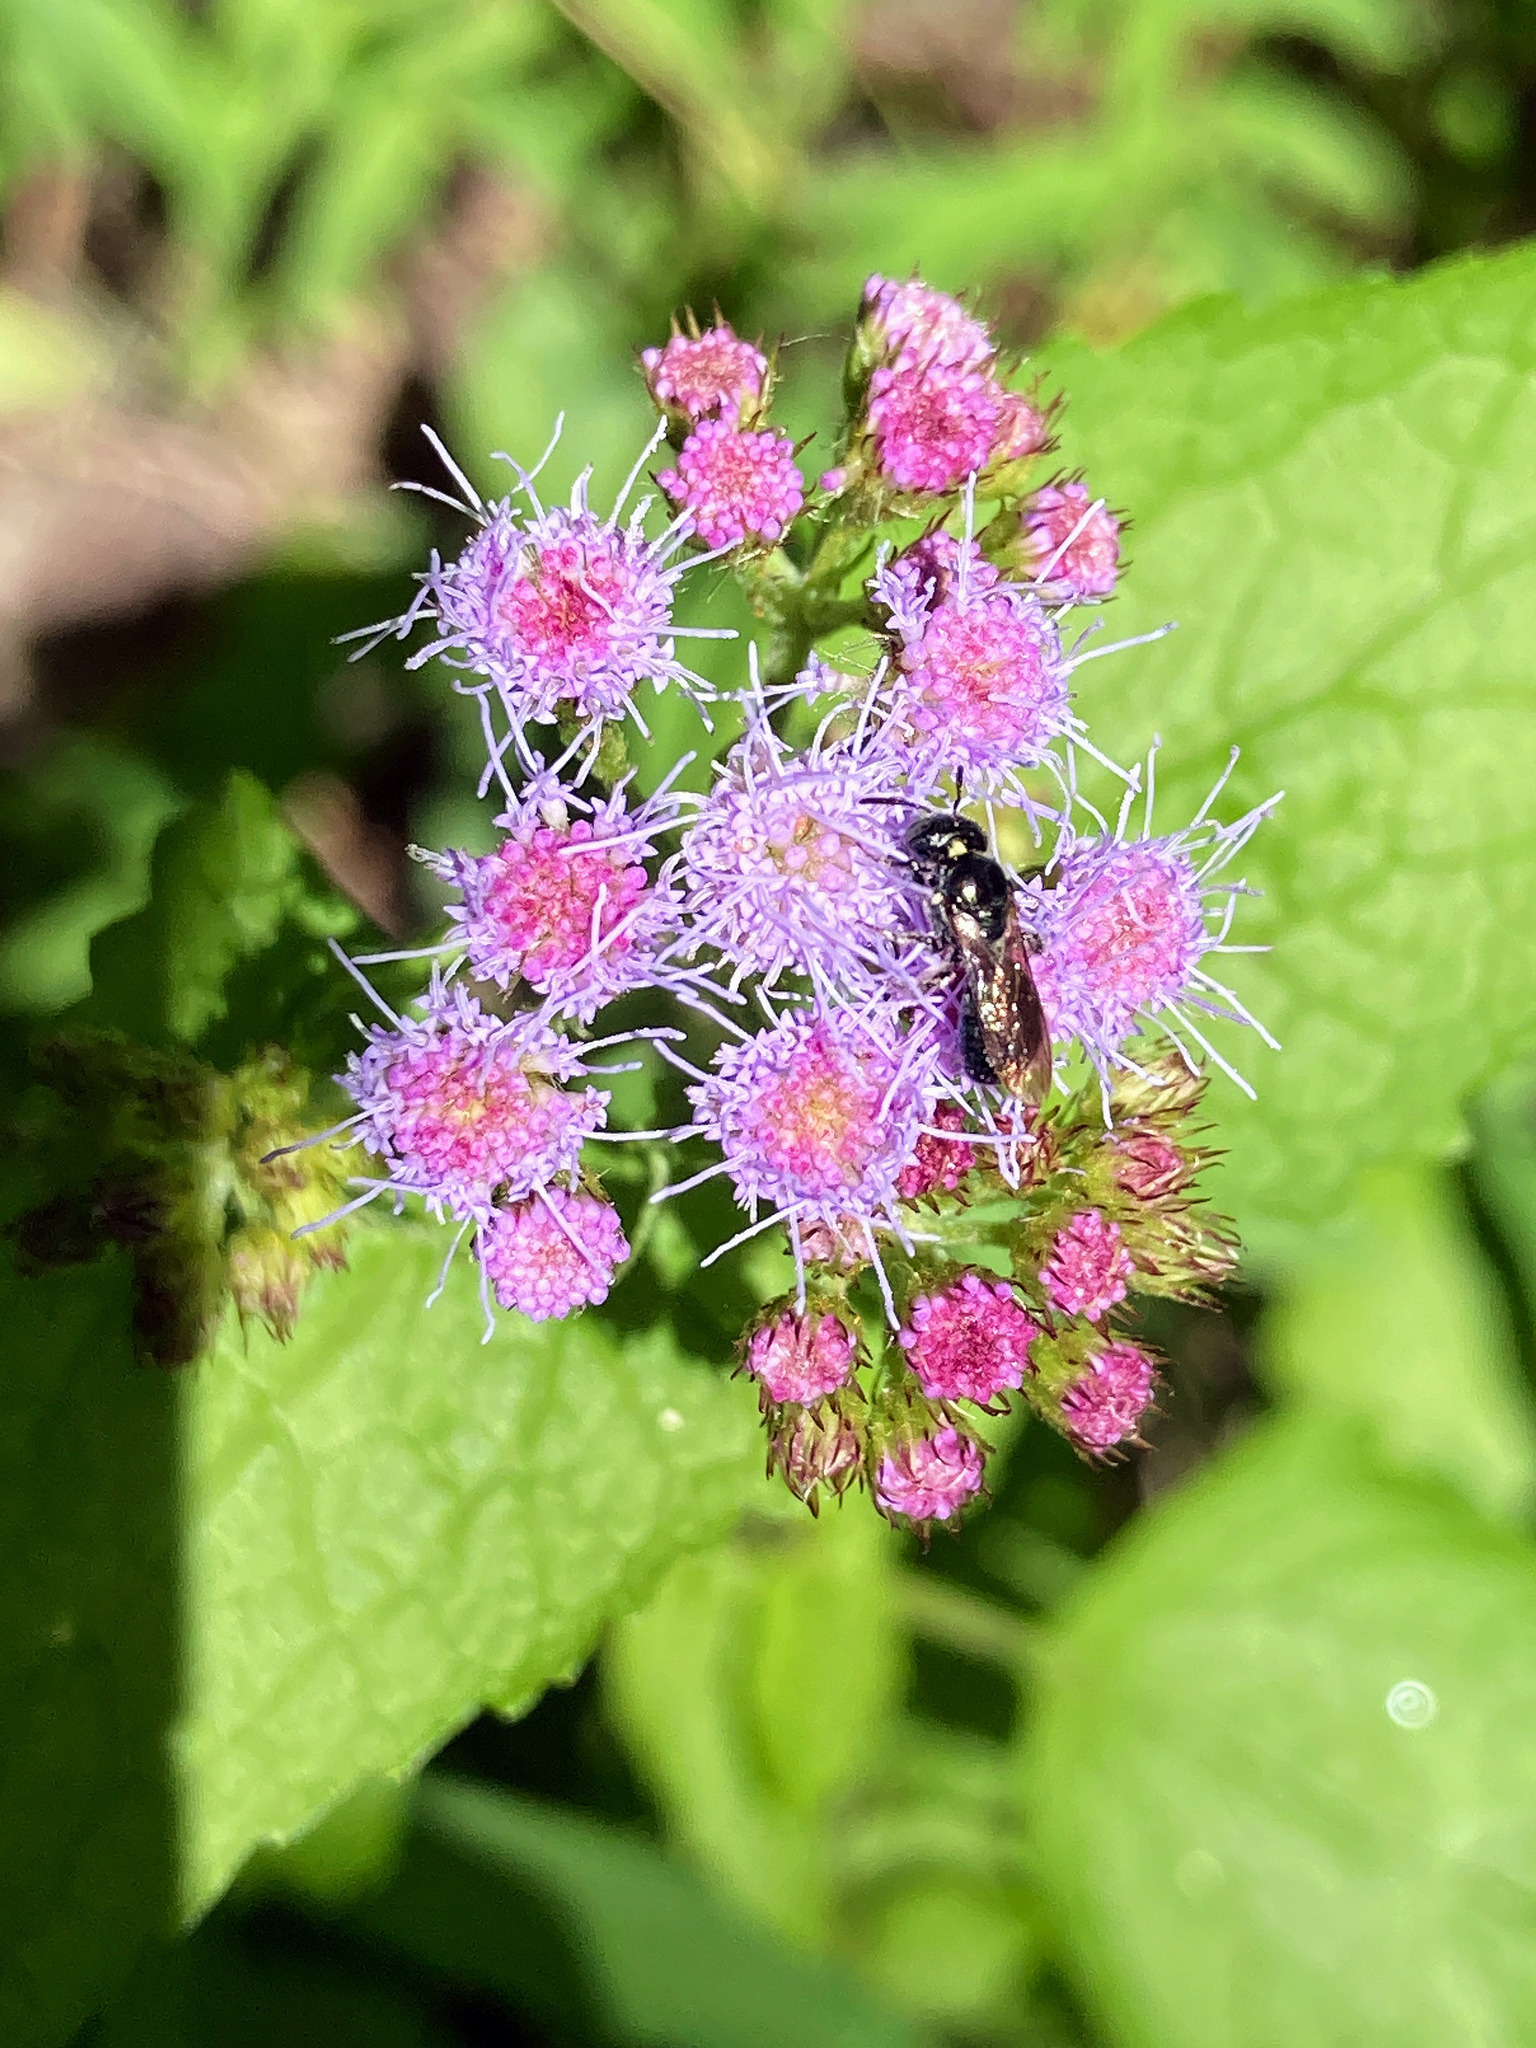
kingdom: Plantae
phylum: Tracheophyta
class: Magnoliopsida
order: Asterales
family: Asteraceae
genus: Conoclinium
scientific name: Conoclinium coelestinum
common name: Blue mistflower
